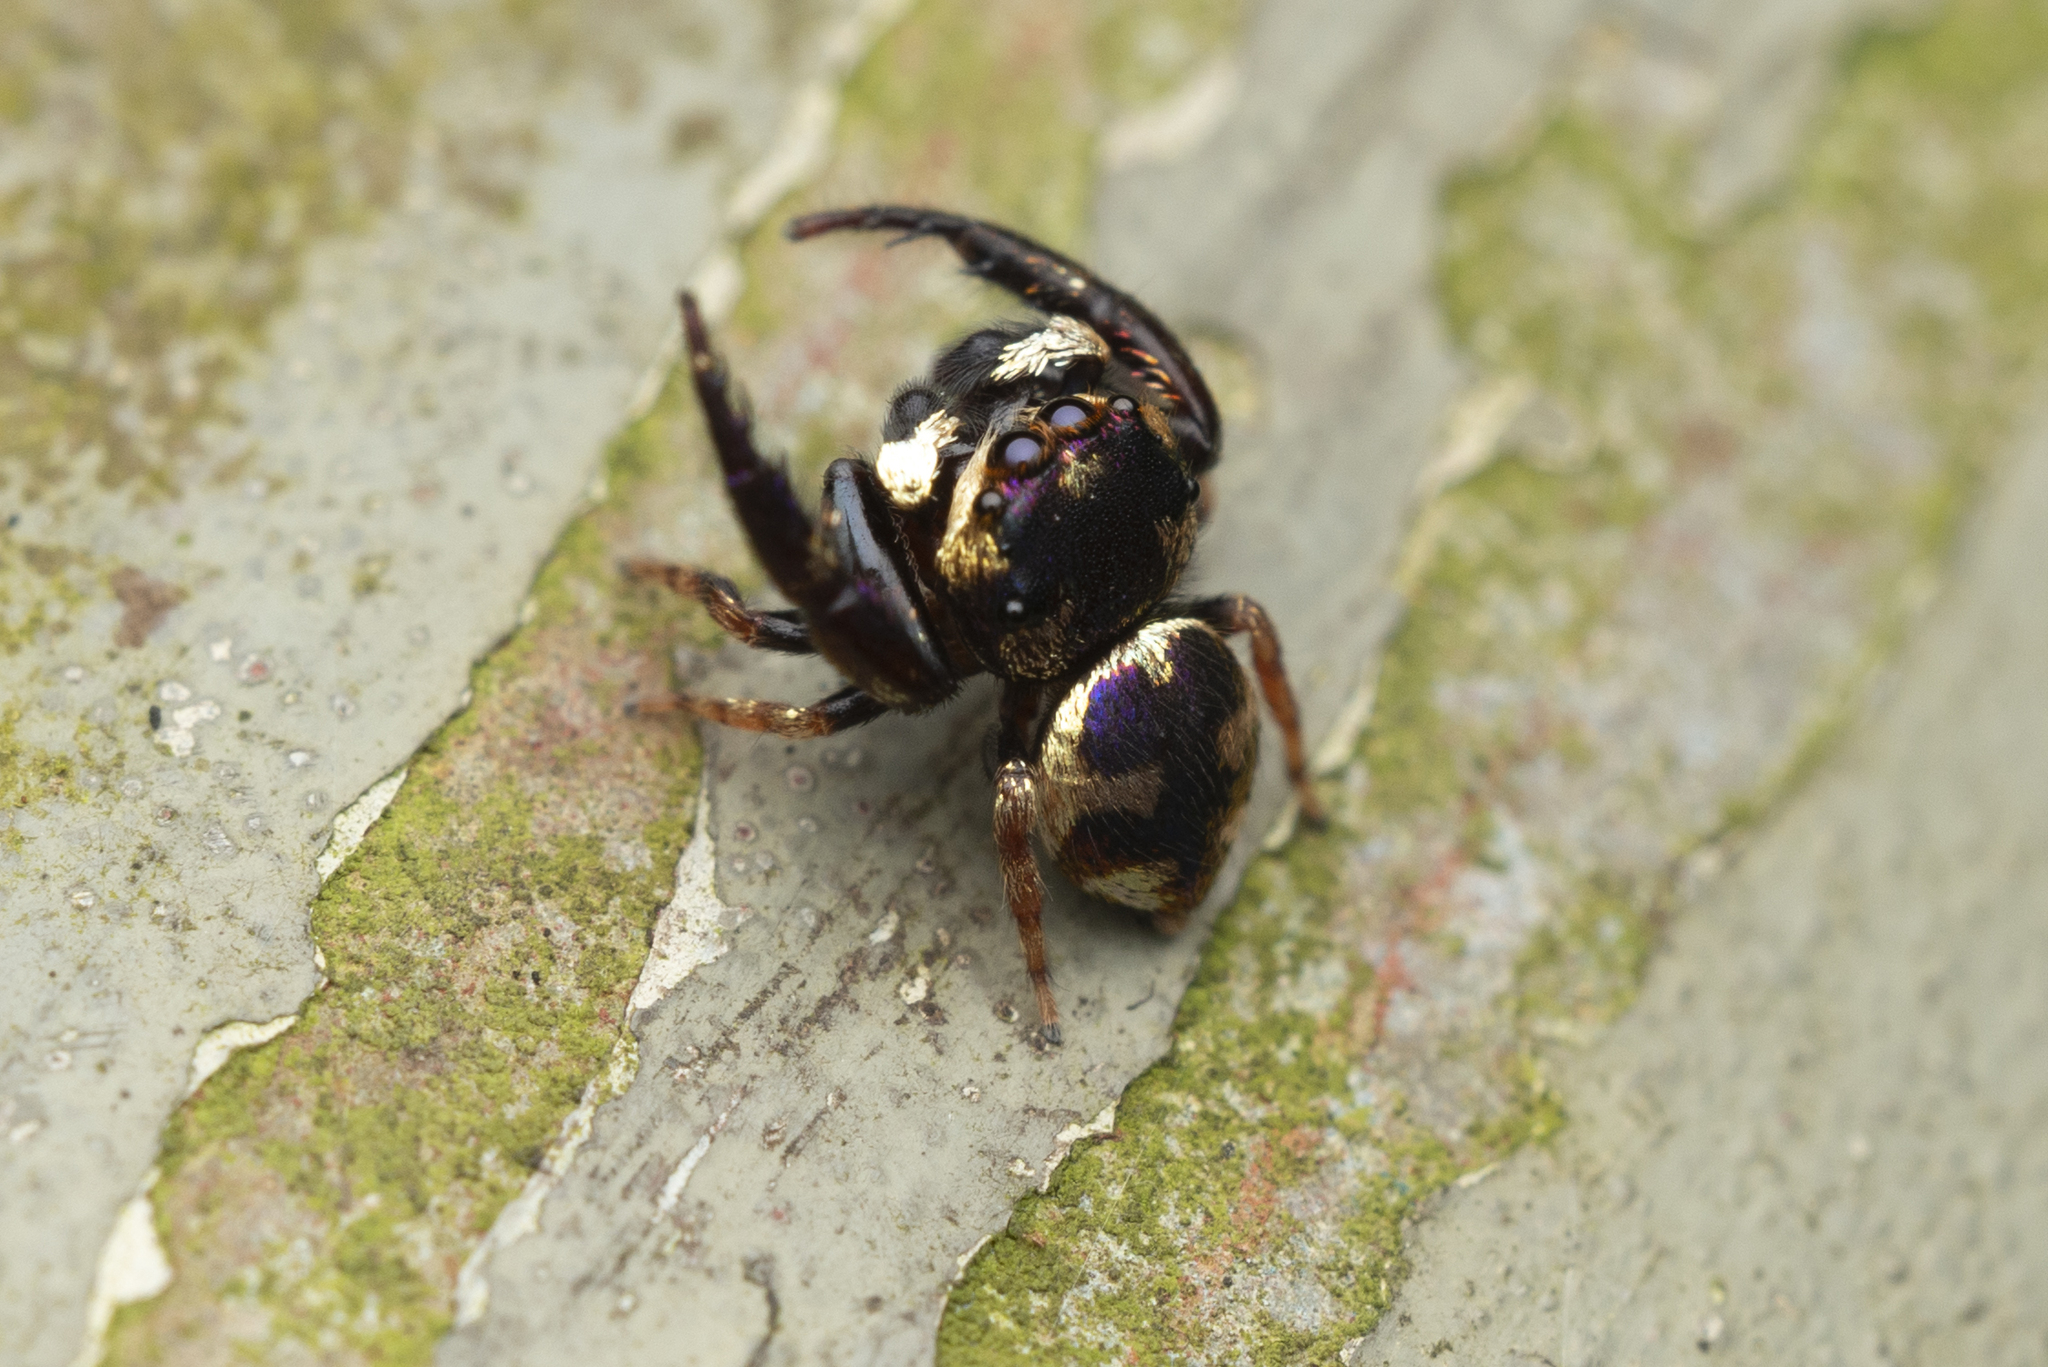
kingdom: Animalia
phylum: Arthropoda
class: Arachnida
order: Araneae
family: Salticidae
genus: Irura
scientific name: Irura bidenticulata
